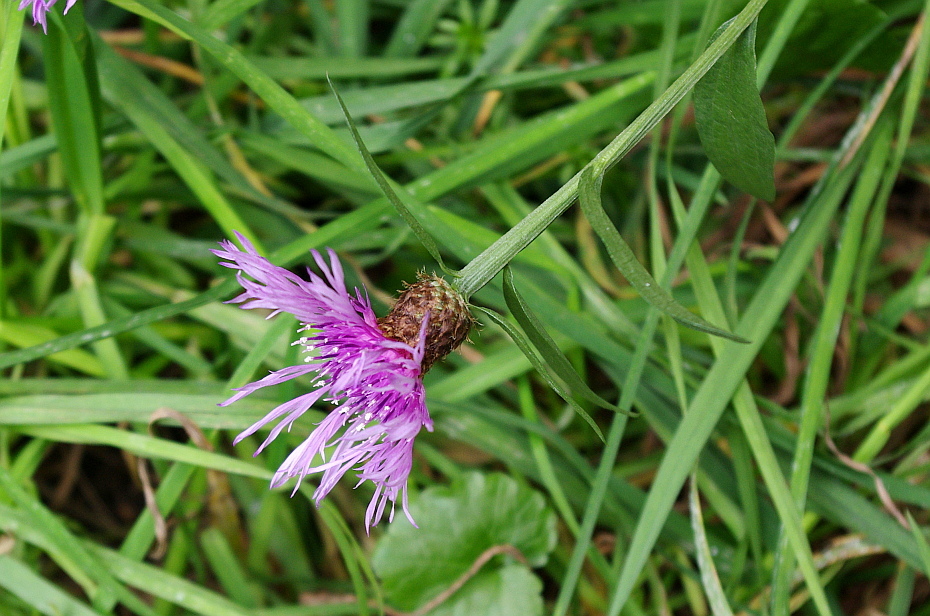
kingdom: Plantae
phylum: Tracheophyta
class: Magnoliopsida
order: Asterales
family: Asteraceae
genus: Centaurea
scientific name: Centaurea jacea
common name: Brown knapweed
